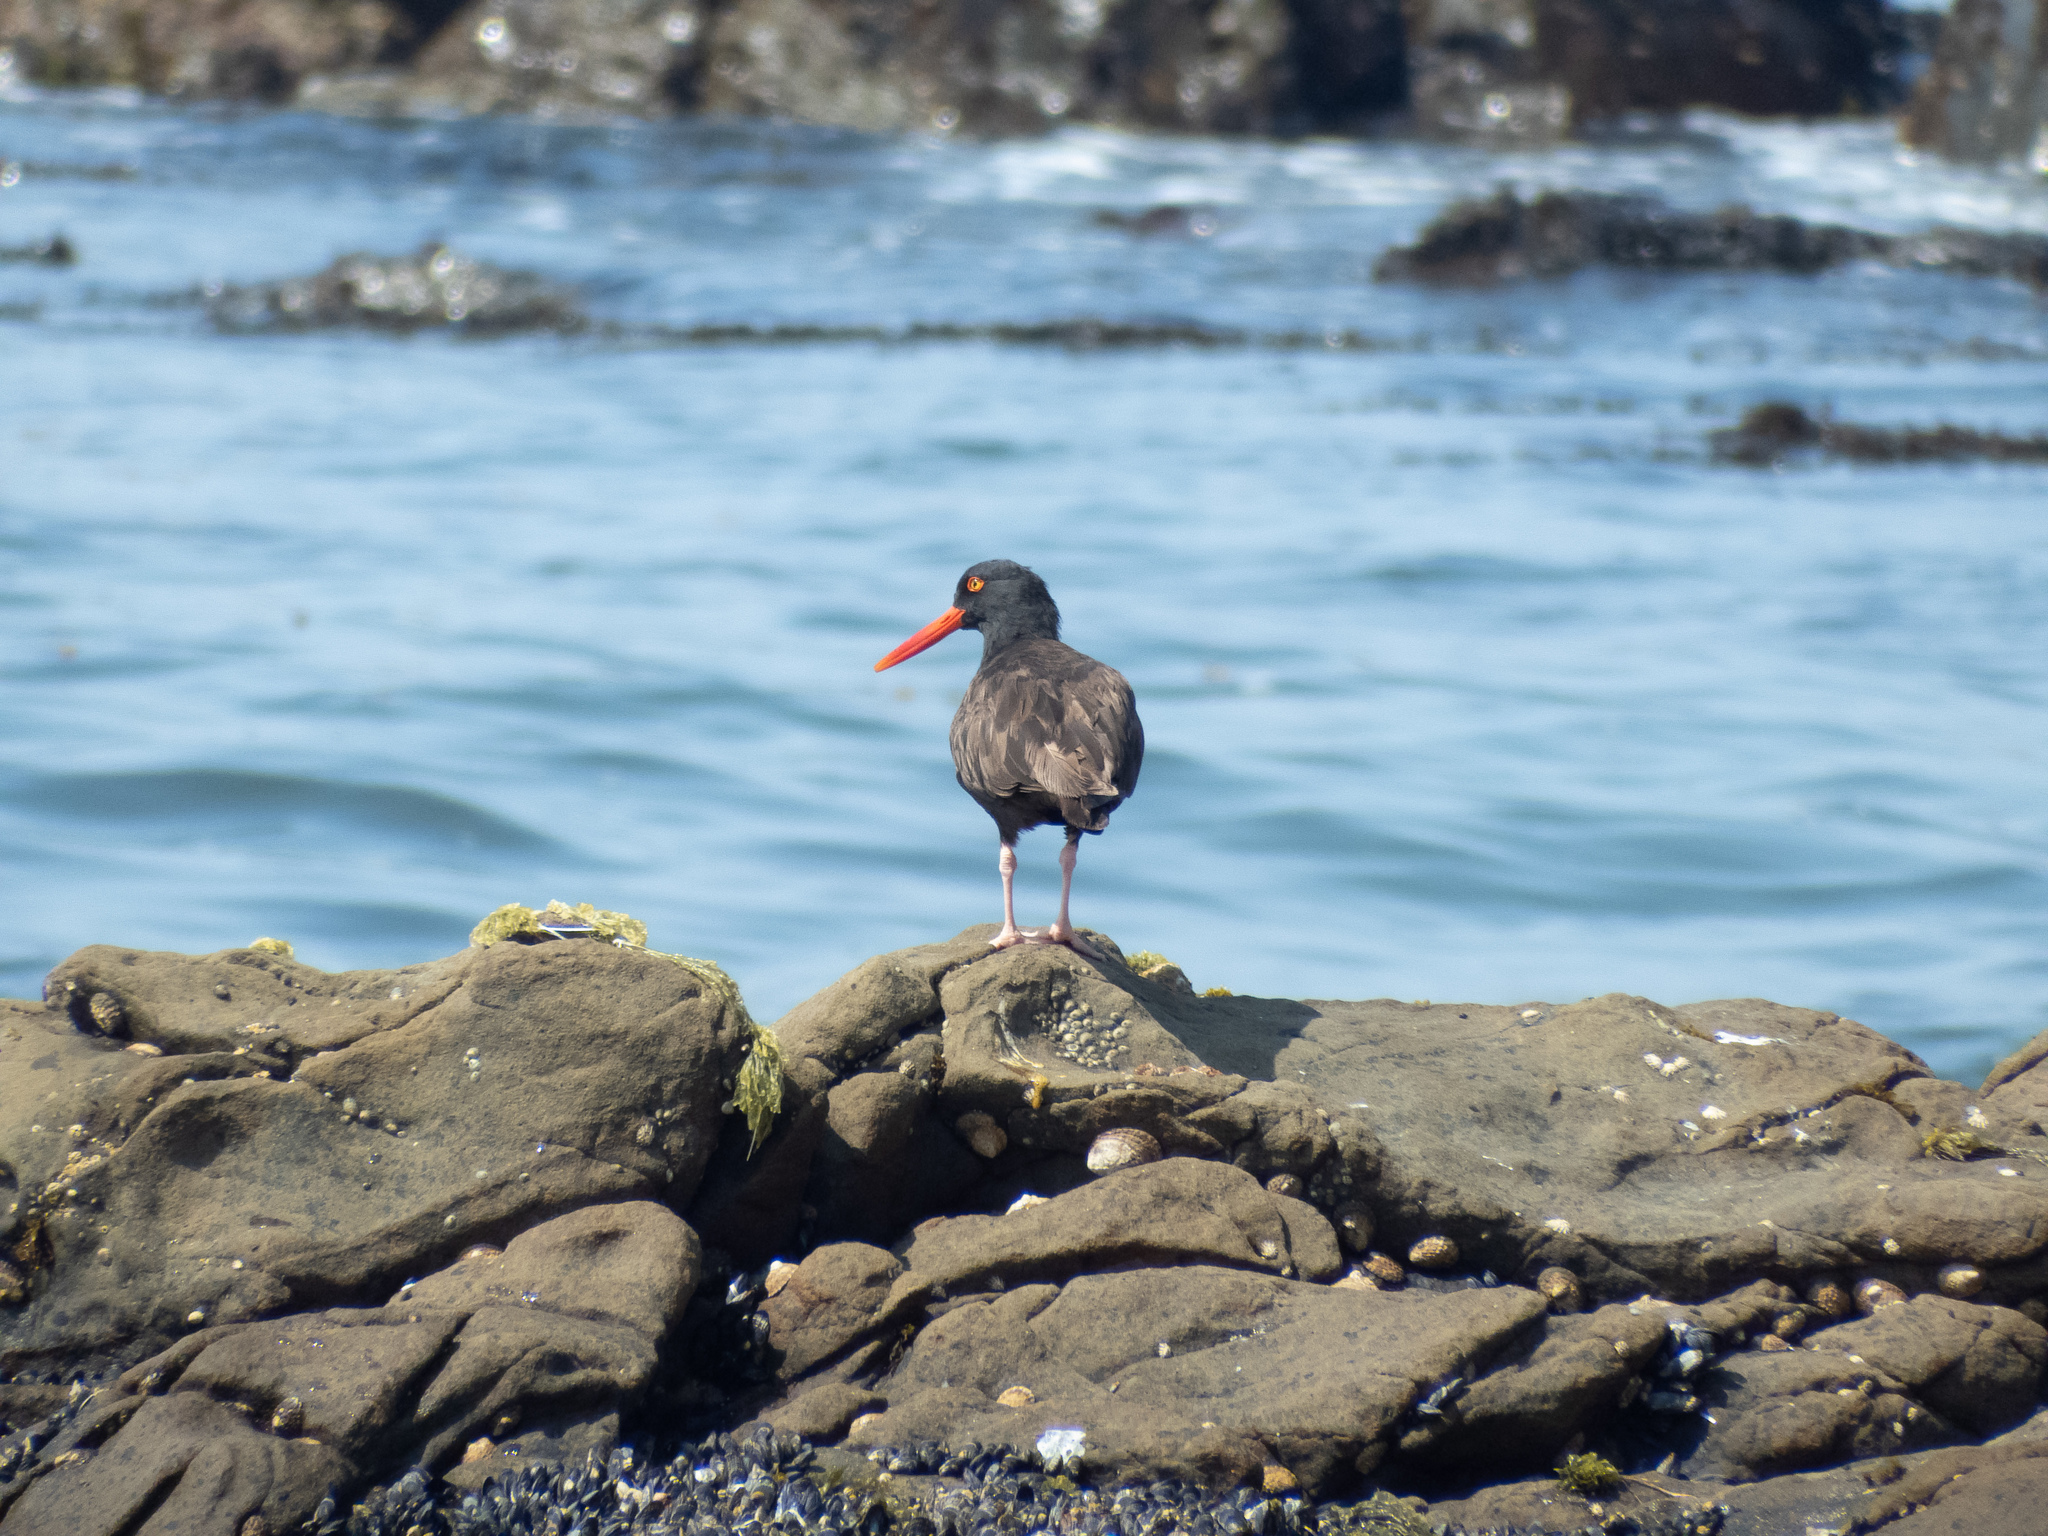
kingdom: Animalia
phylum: Chordata
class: Aves
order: Charadriiformes
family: Haematopodidae
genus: Haematopus
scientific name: Haematopus bachmani
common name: Black oystercatcher
